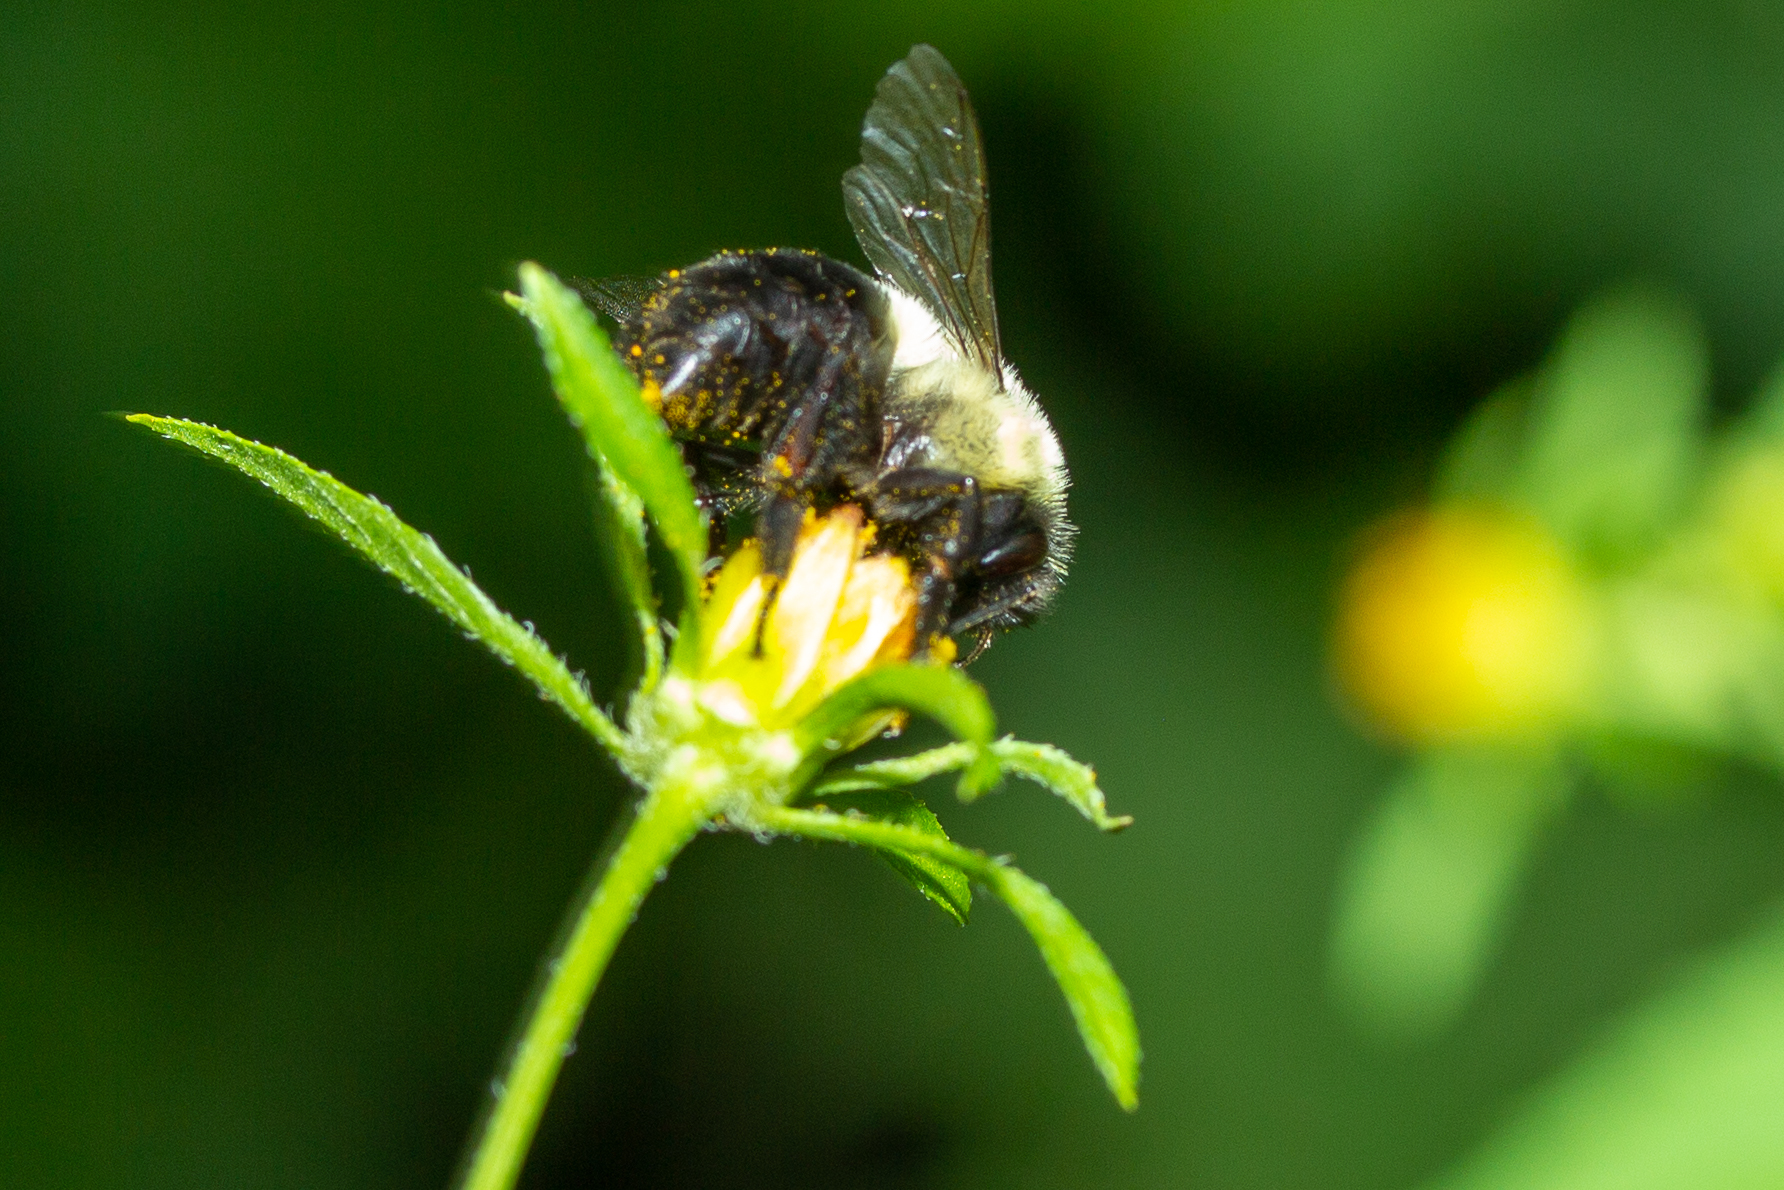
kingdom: Animalia
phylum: Arthropoda
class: Insecta
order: Hymenoptera
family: Apidae
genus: Bombus
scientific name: Bombus impatiens
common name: Common eastern bumble bee
